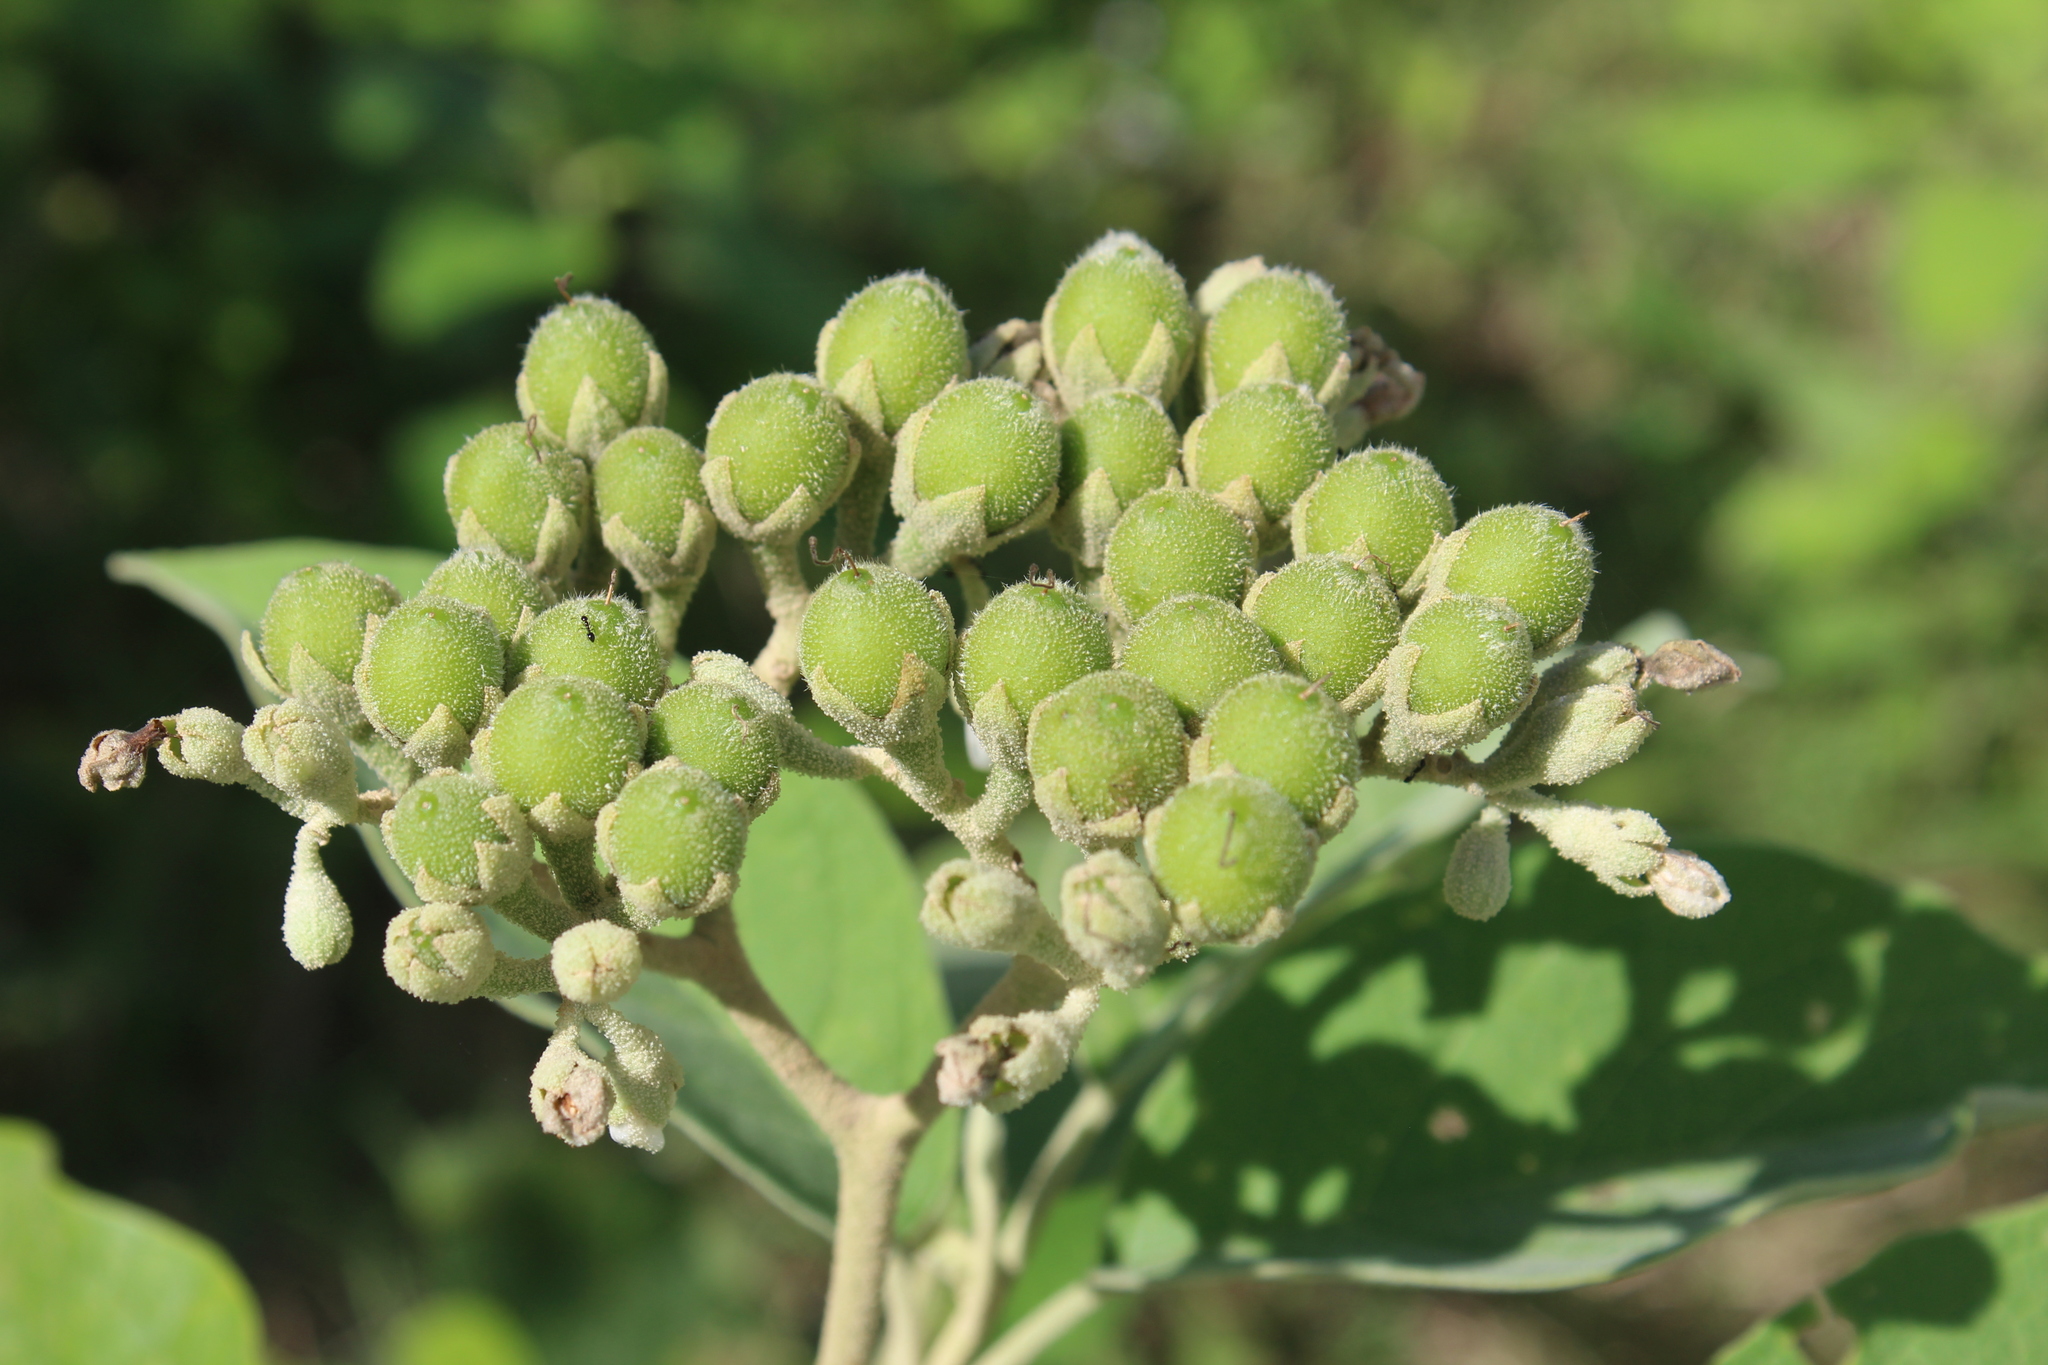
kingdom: Plantae
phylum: Tracheophyta
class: Magnoliopsida
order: Solanales
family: Solanaceae
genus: Solanum
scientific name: Solanum erianthum
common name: Tobacco-tree
